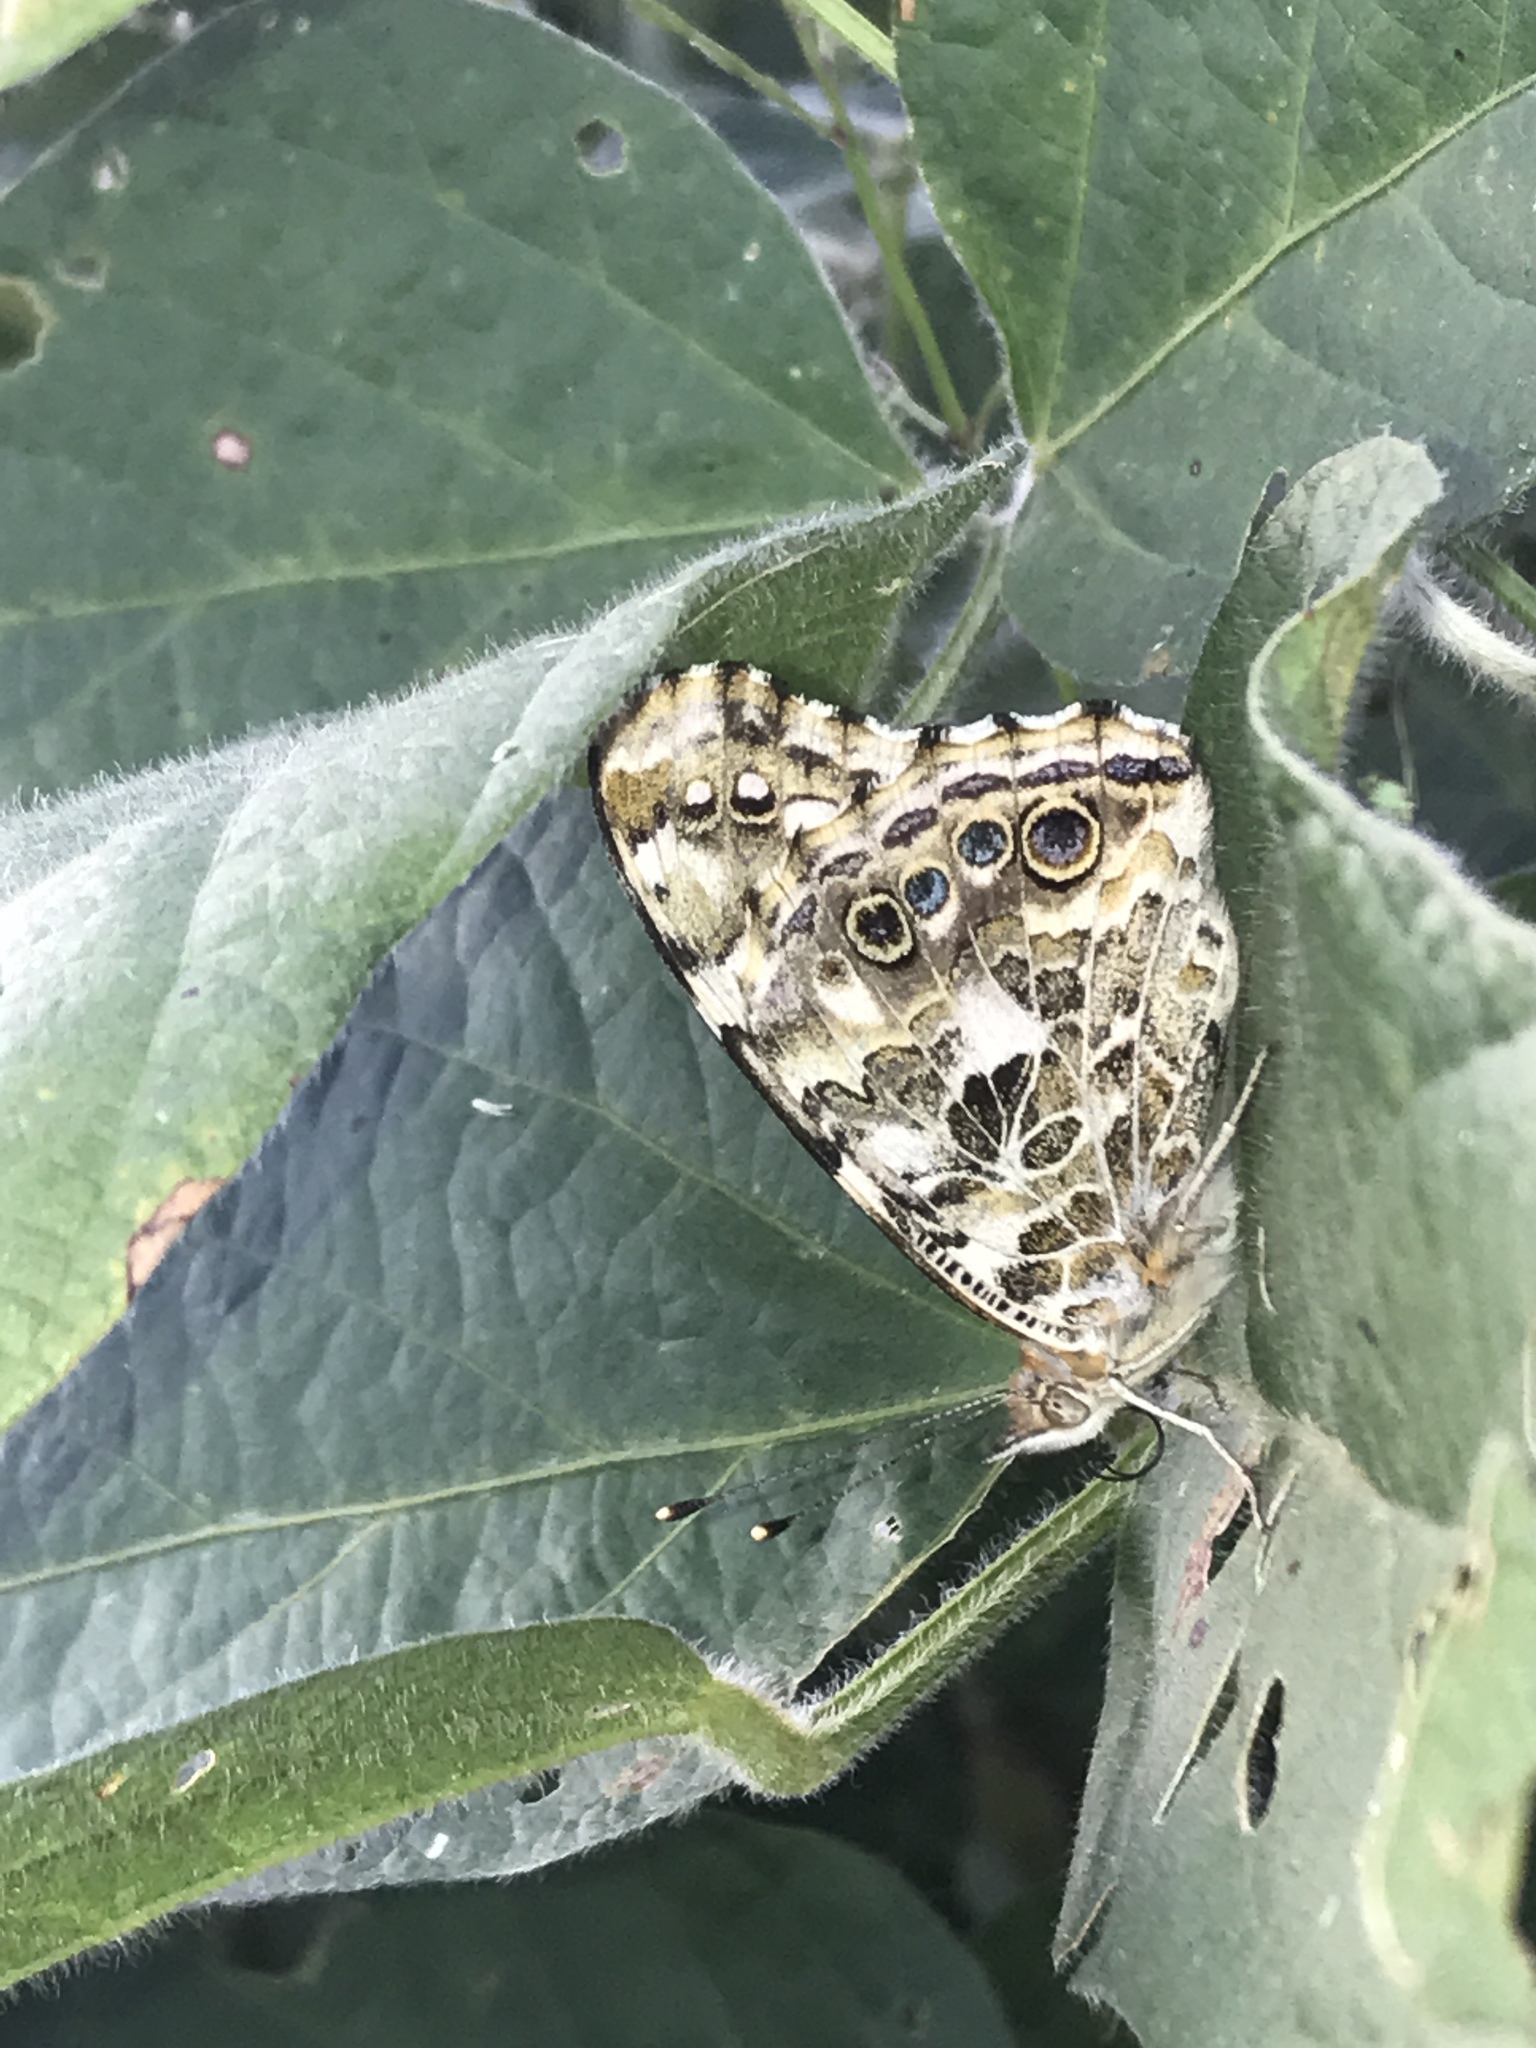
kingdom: Animalia
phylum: Arthropoda
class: Insecta
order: Lepidoptera
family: Nymphalidae
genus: Vanessa
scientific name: Vanessa cardui
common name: Painted lady
